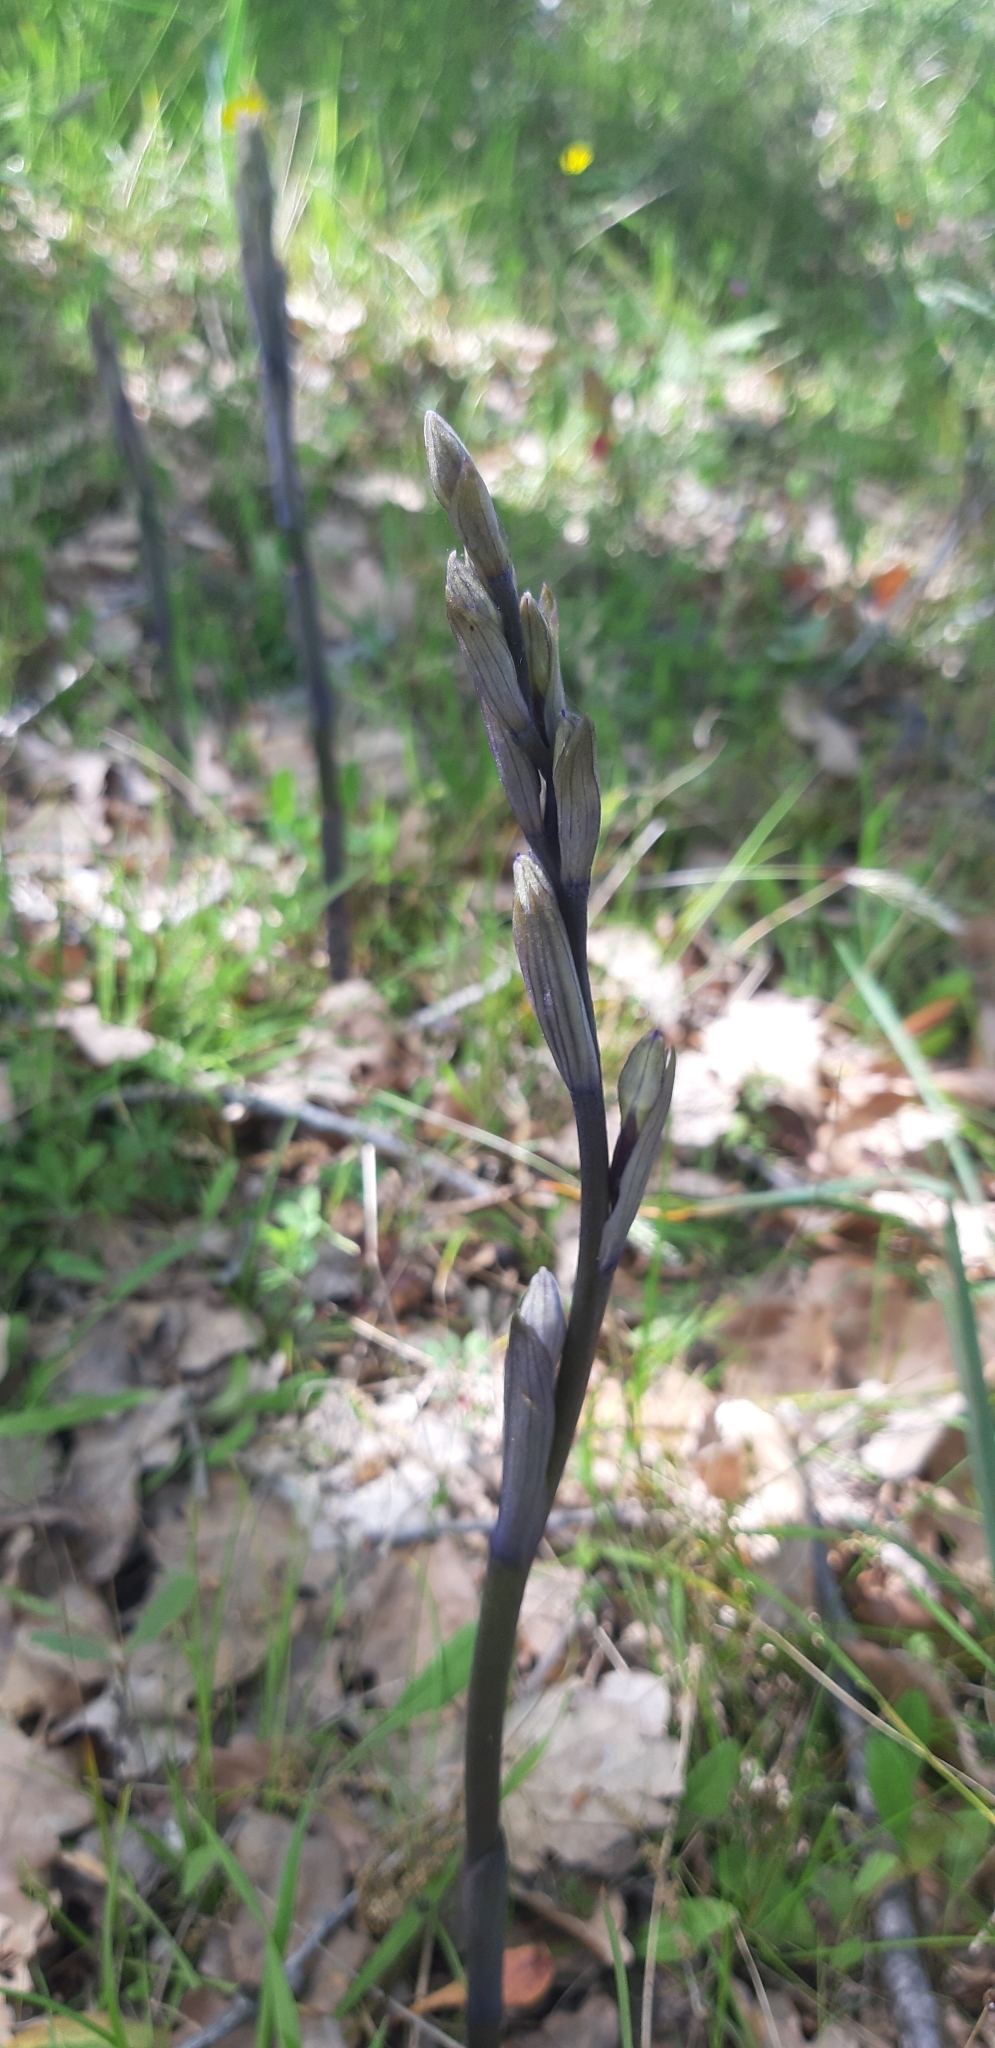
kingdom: Plantae
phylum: Tracheophyta
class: Liliopsida
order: Asparagales
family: Orchidaceae
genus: Limodorum
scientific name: Limodorum abortivum
